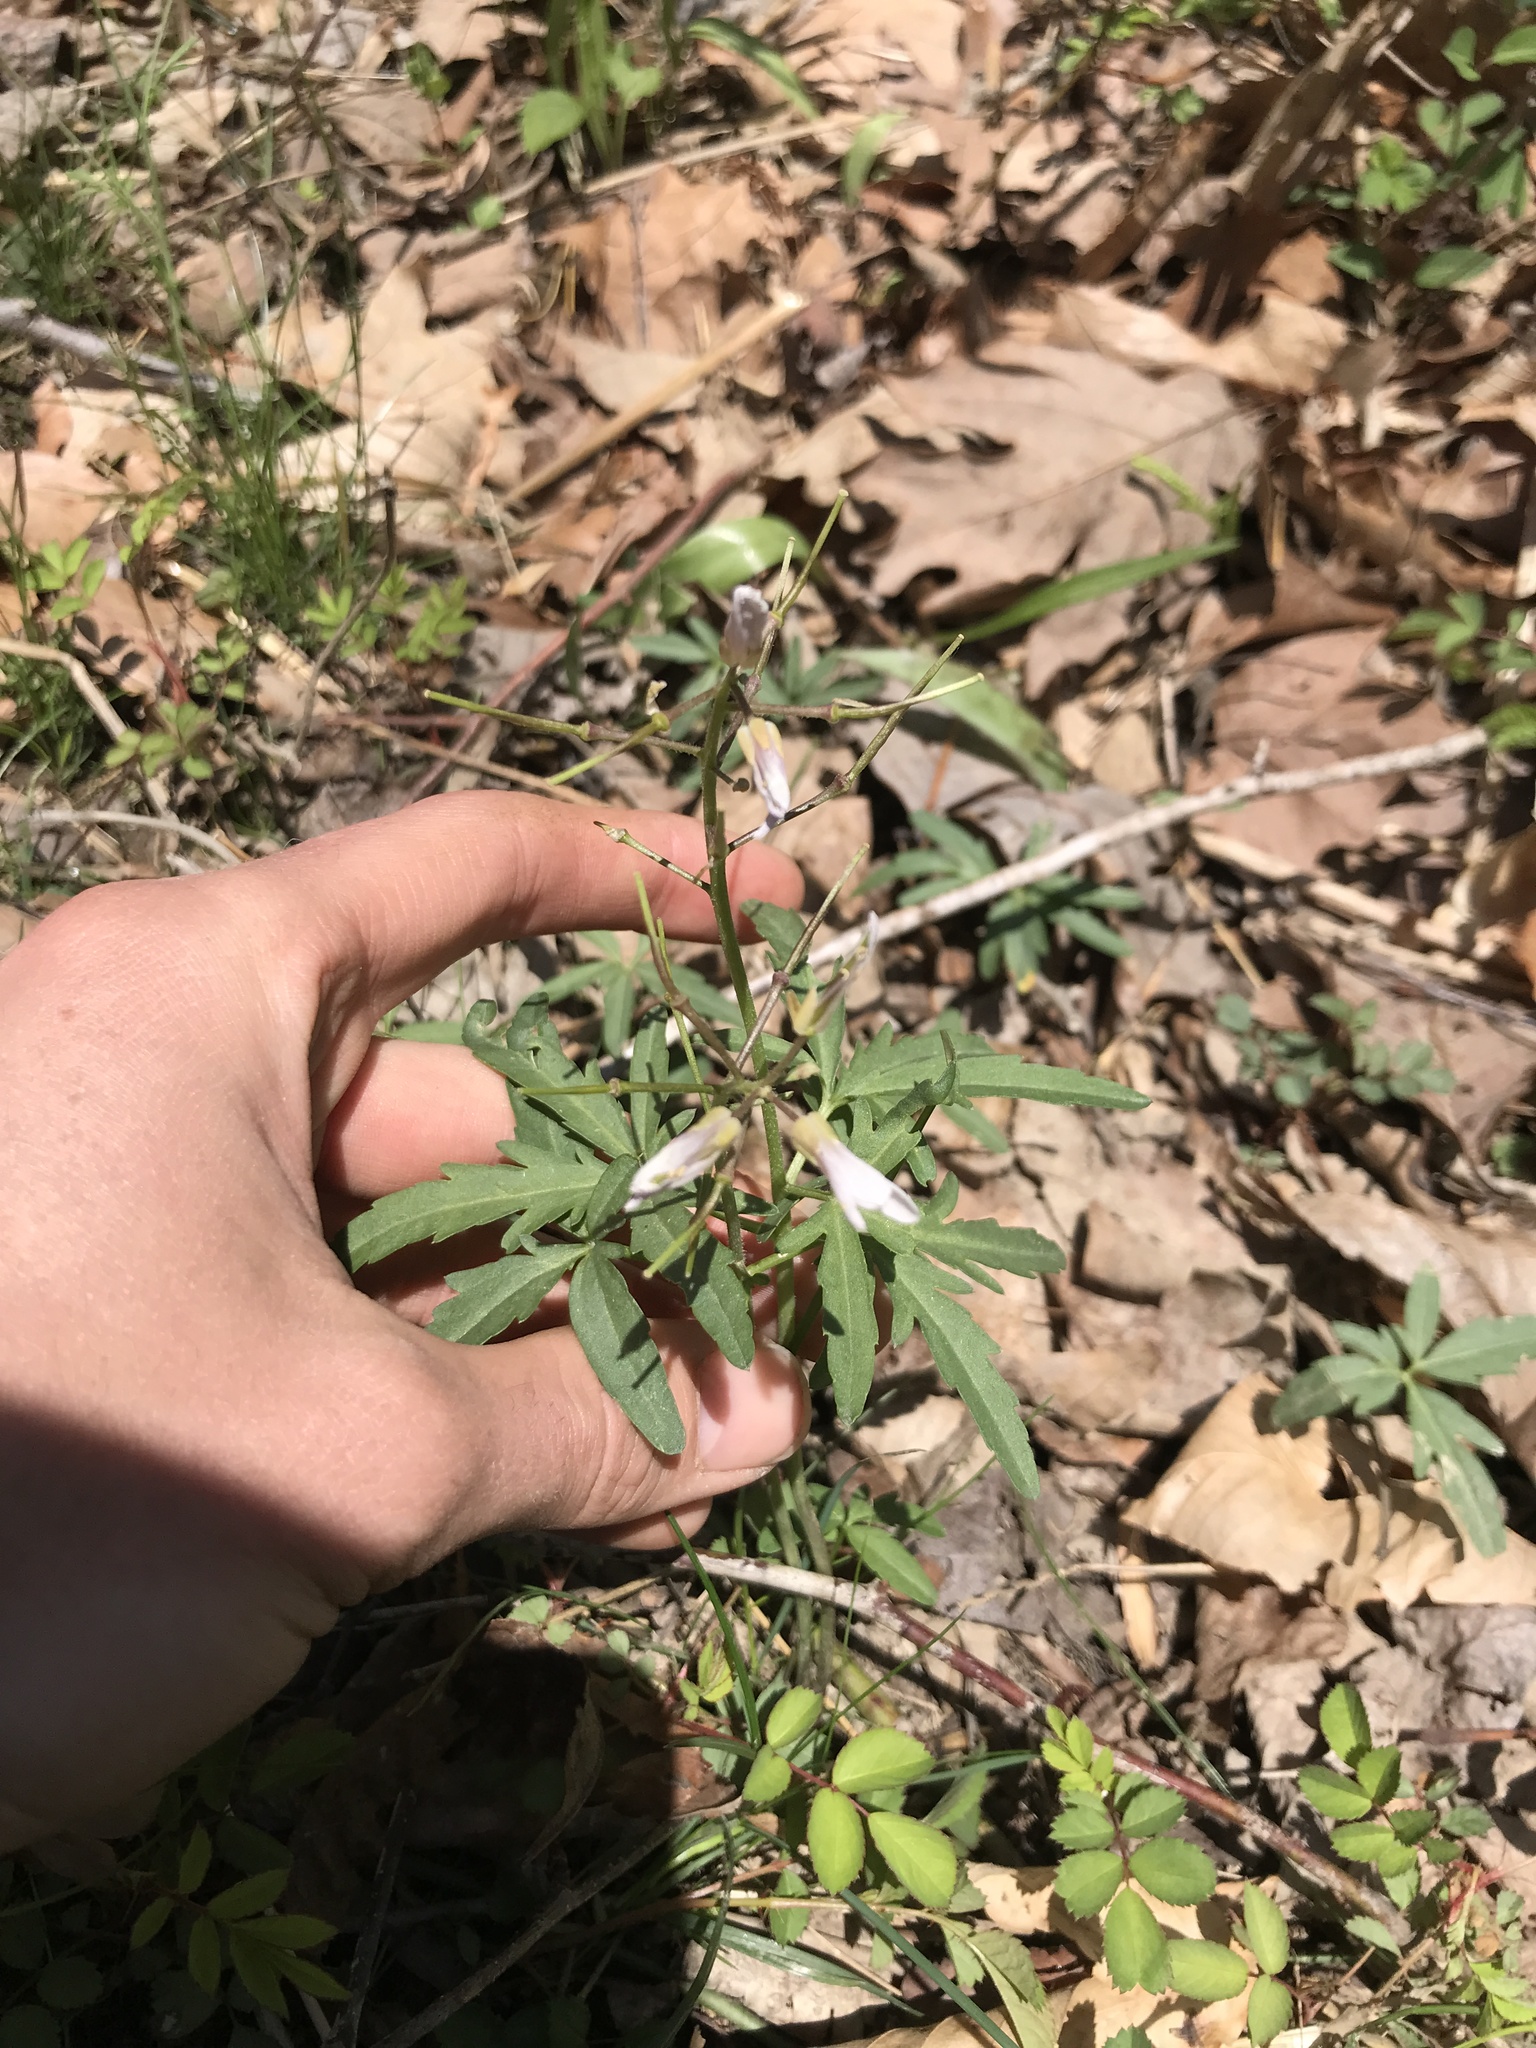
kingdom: Plantae
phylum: Tracheophyta
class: Magnoliopsida
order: Brassicales
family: Brassicaceae
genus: Cardamine
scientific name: Cardamine concatenata
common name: Cut-leaf toothcup
